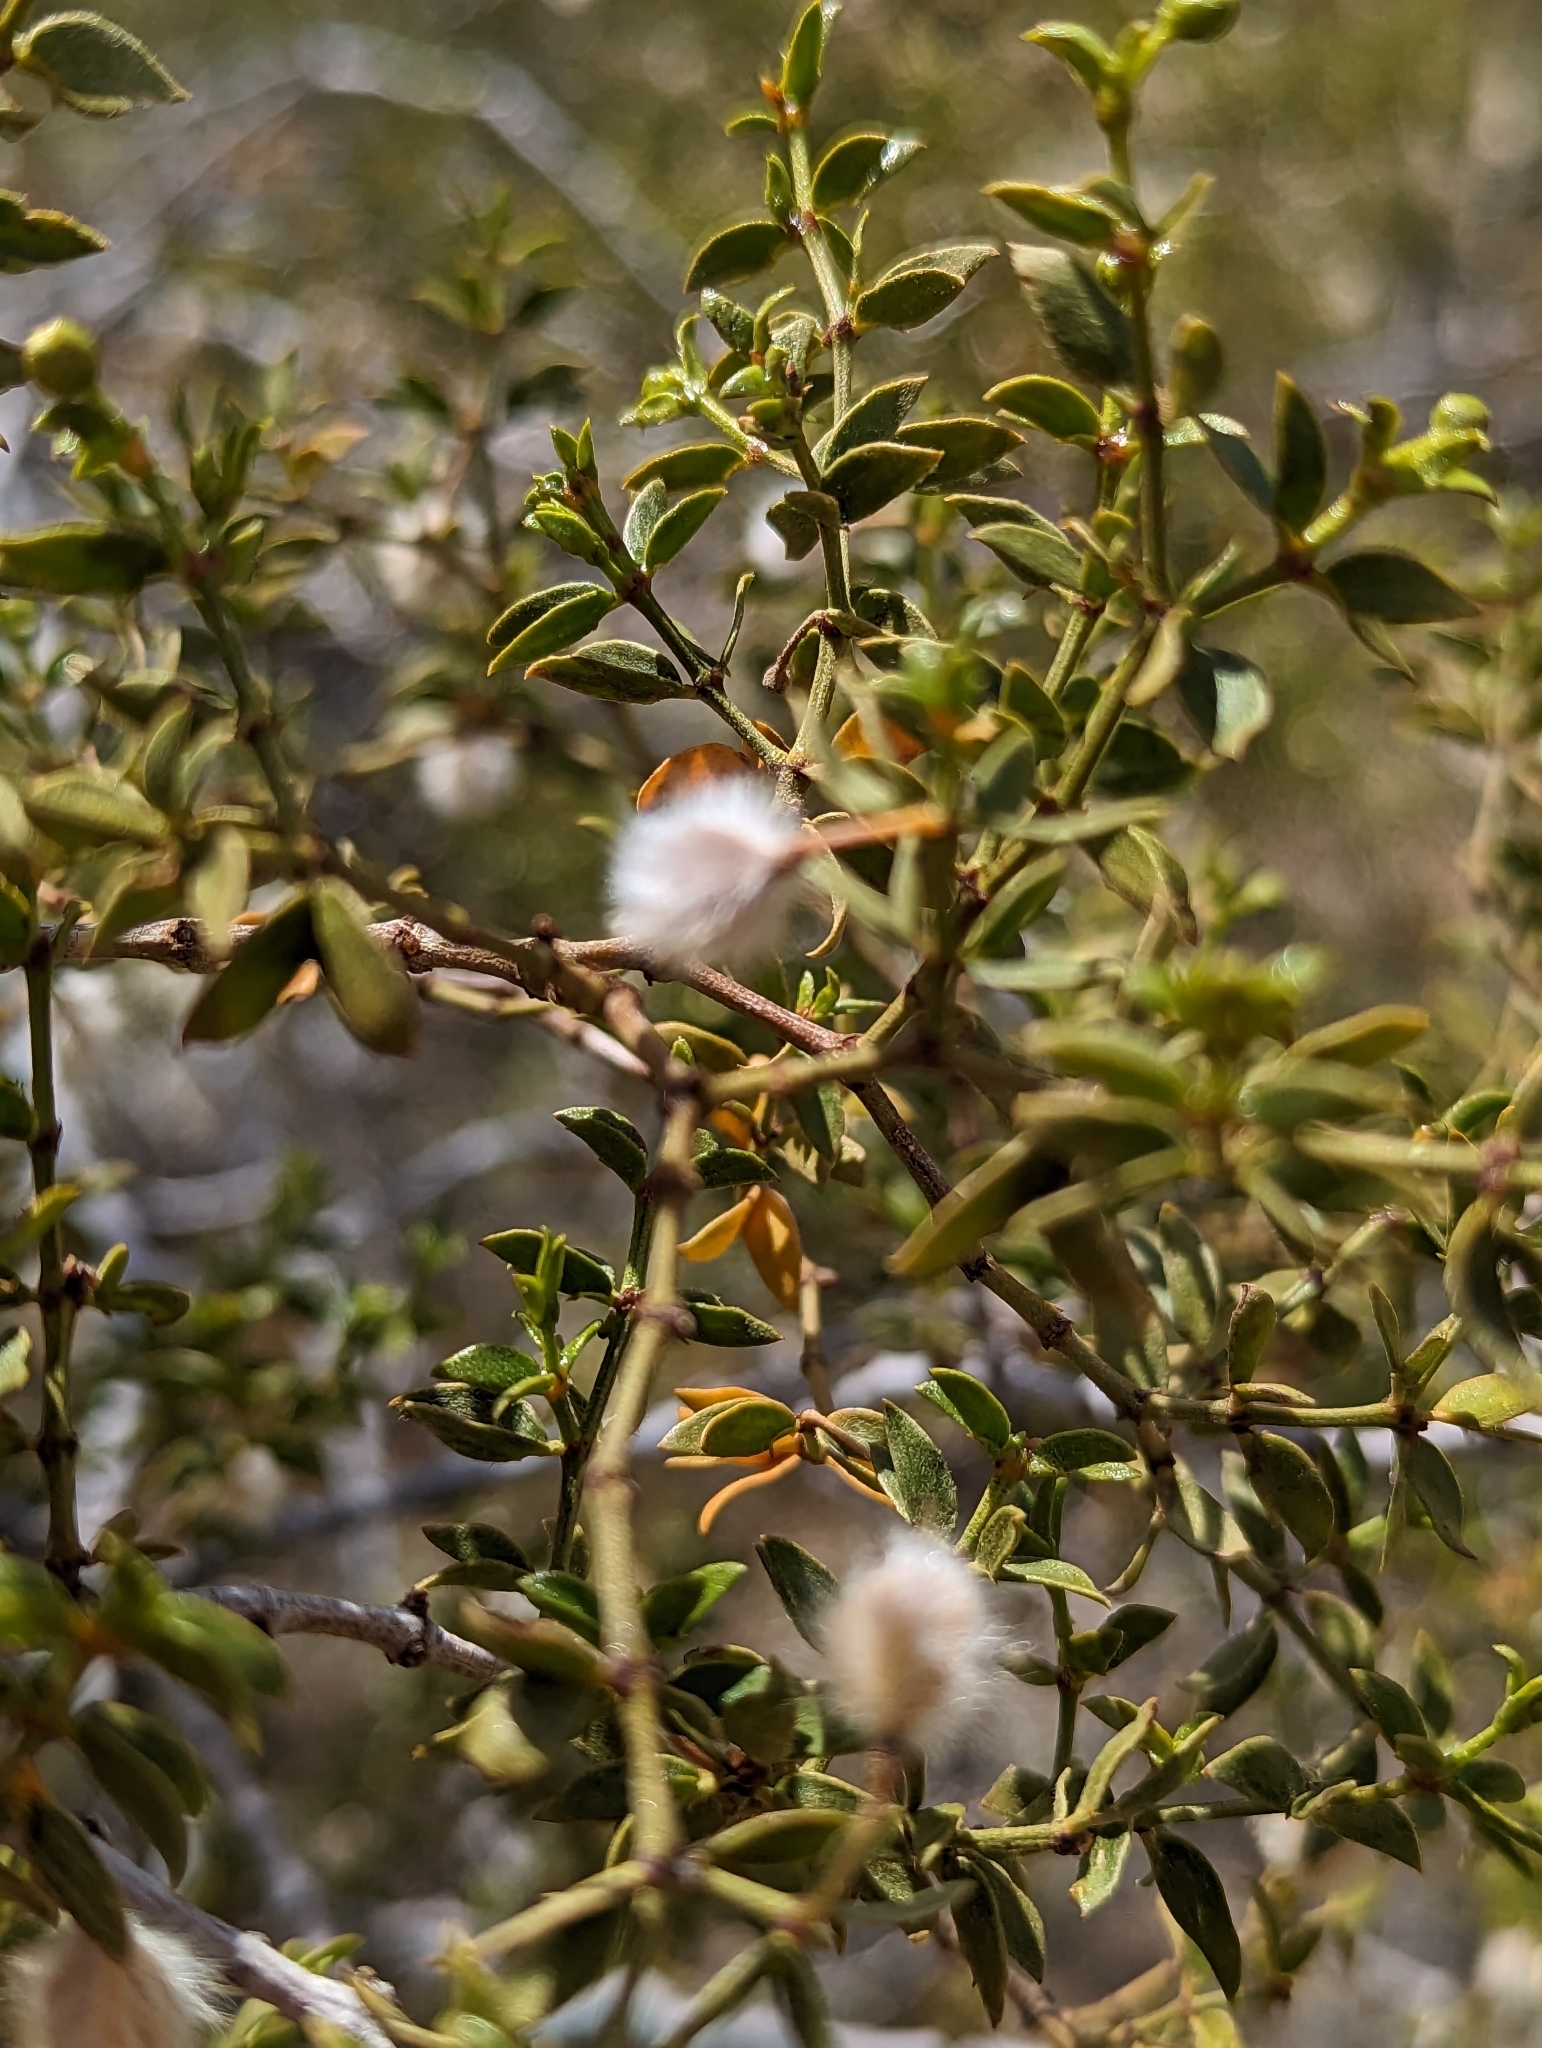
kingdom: Plantae
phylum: Tracheophyta
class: Magnoliopsida
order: Zygophyllales
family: Zygophyllaceae
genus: Larrea
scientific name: Larrea tridentata
